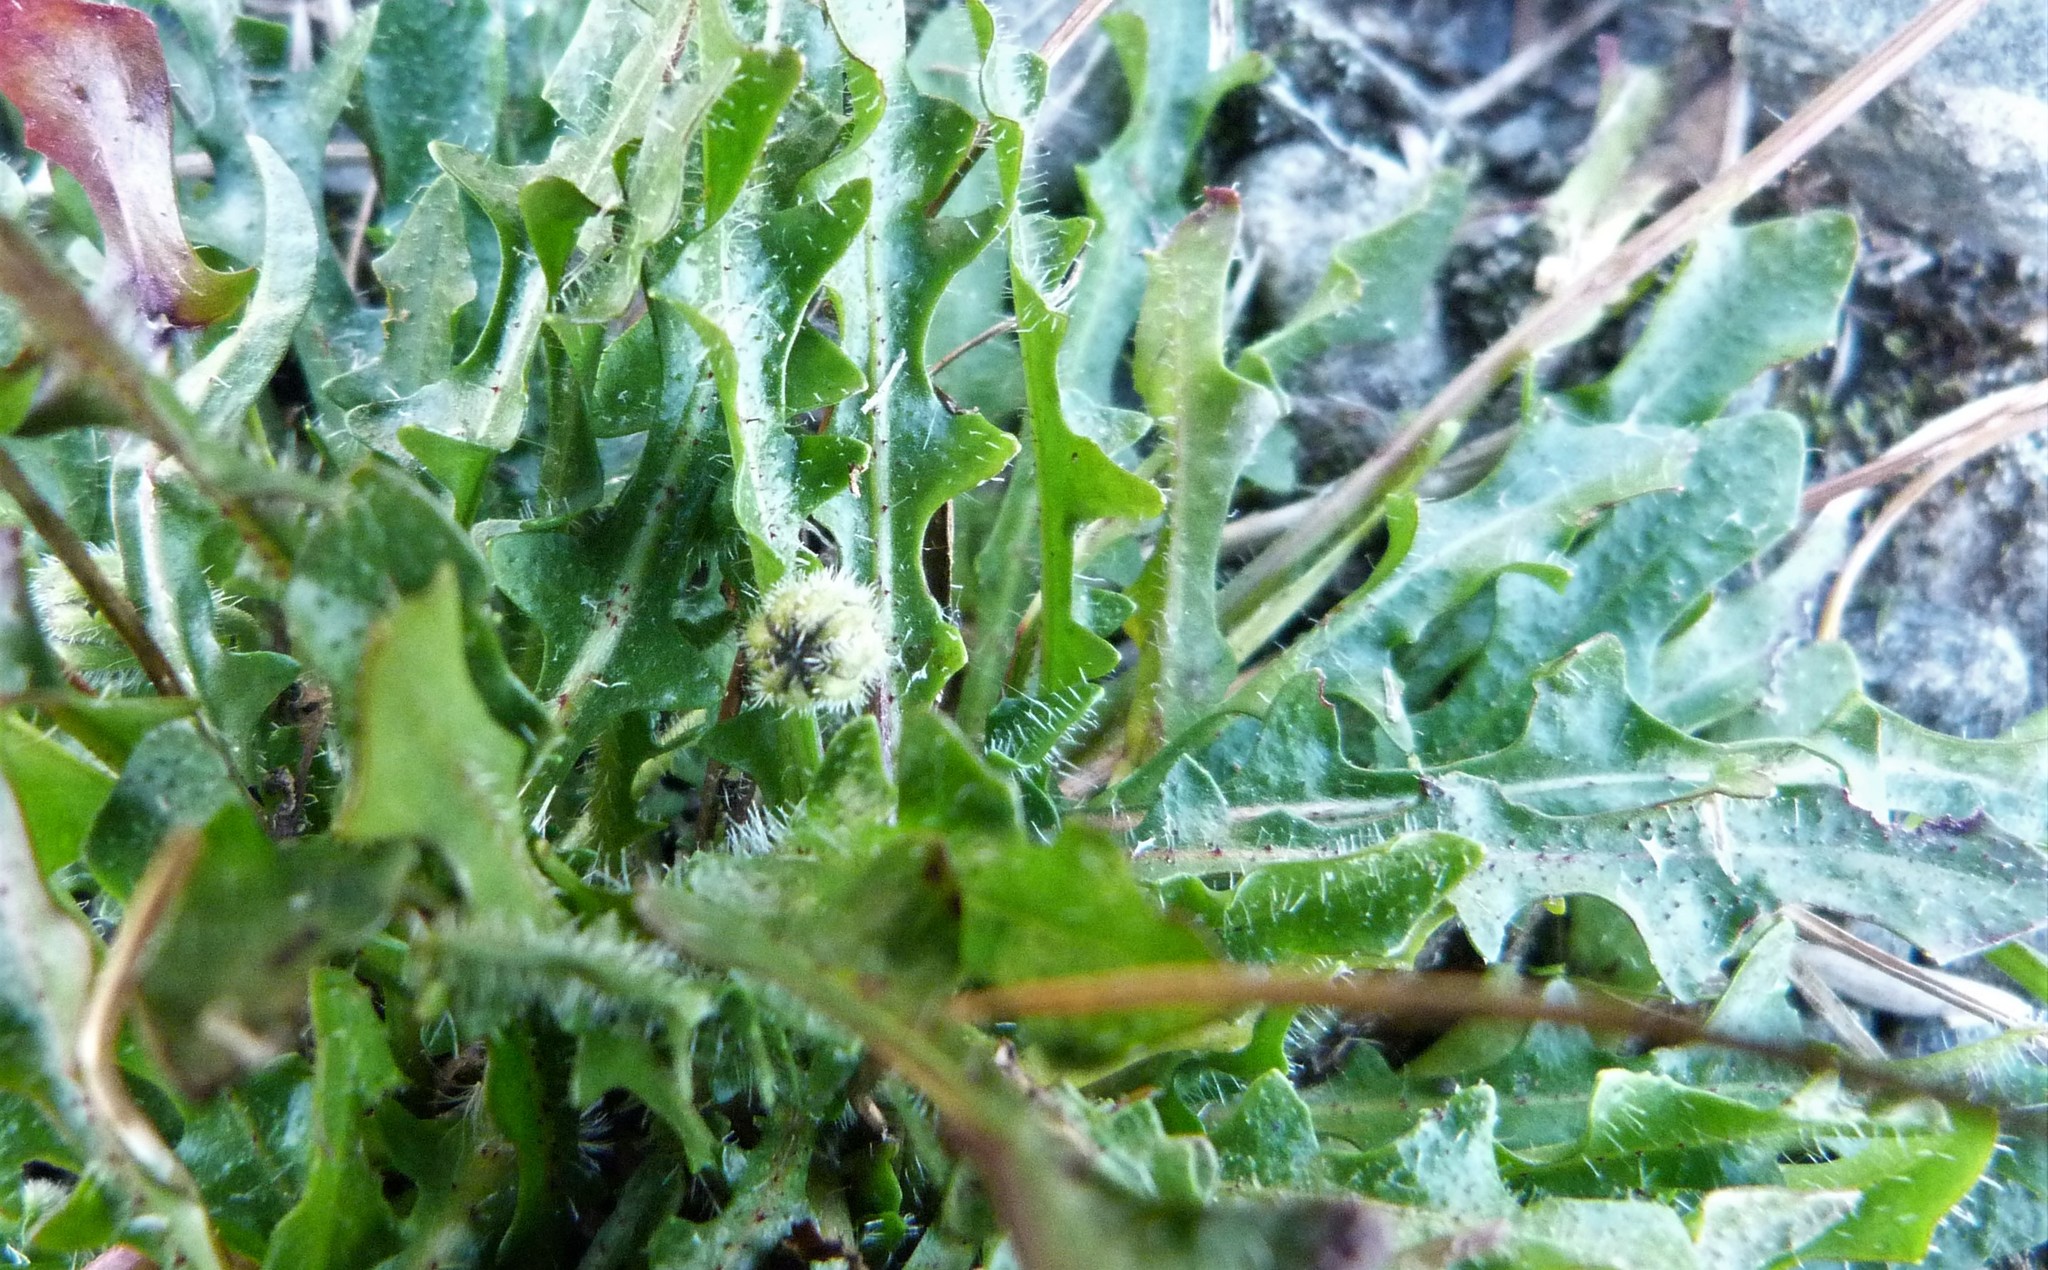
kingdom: Plantae
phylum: Tracheophyta
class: Magnoliopsida
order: Asterales
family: Asteraceae
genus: Thrincia
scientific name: Thrincia saxatilis
